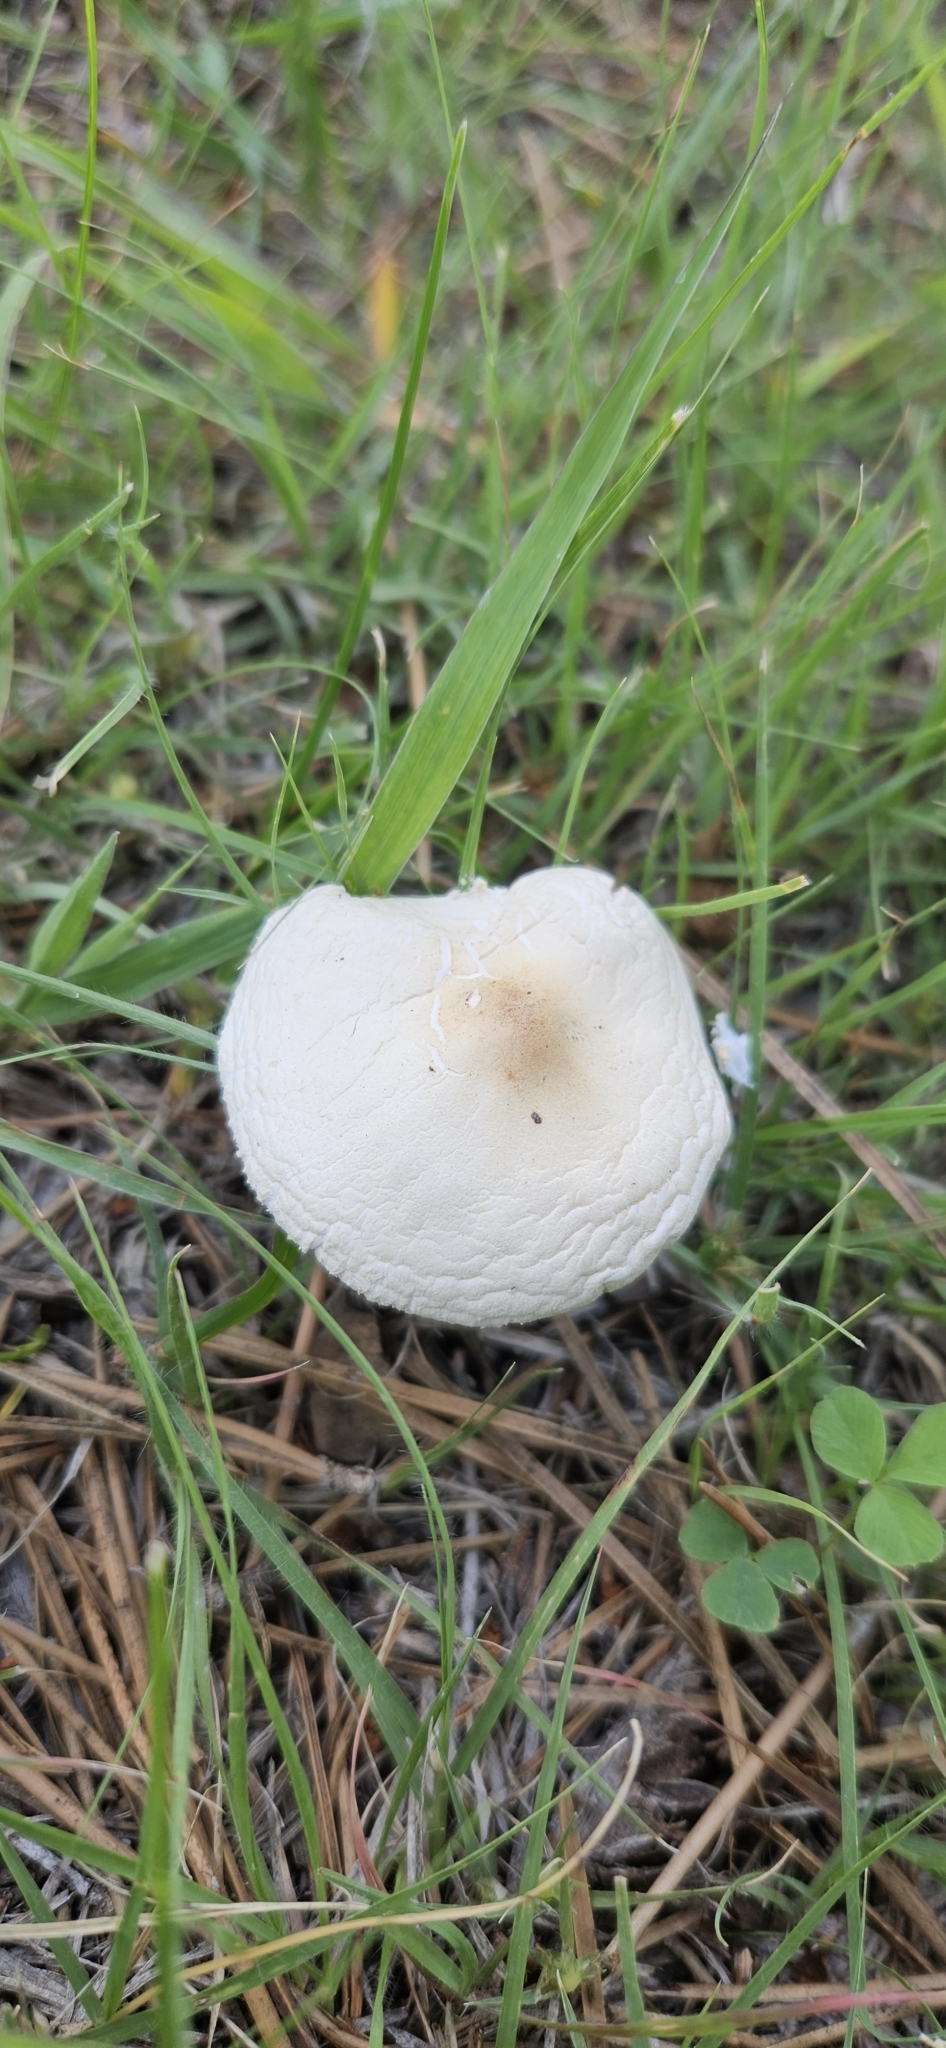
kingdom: Fungi
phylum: Basidiomycota
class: Agaricomycetes
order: Agaricales
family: Agaricaceae
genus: Chlorophyllum
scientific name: Chlorophyllum molybdites
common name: False parasol
